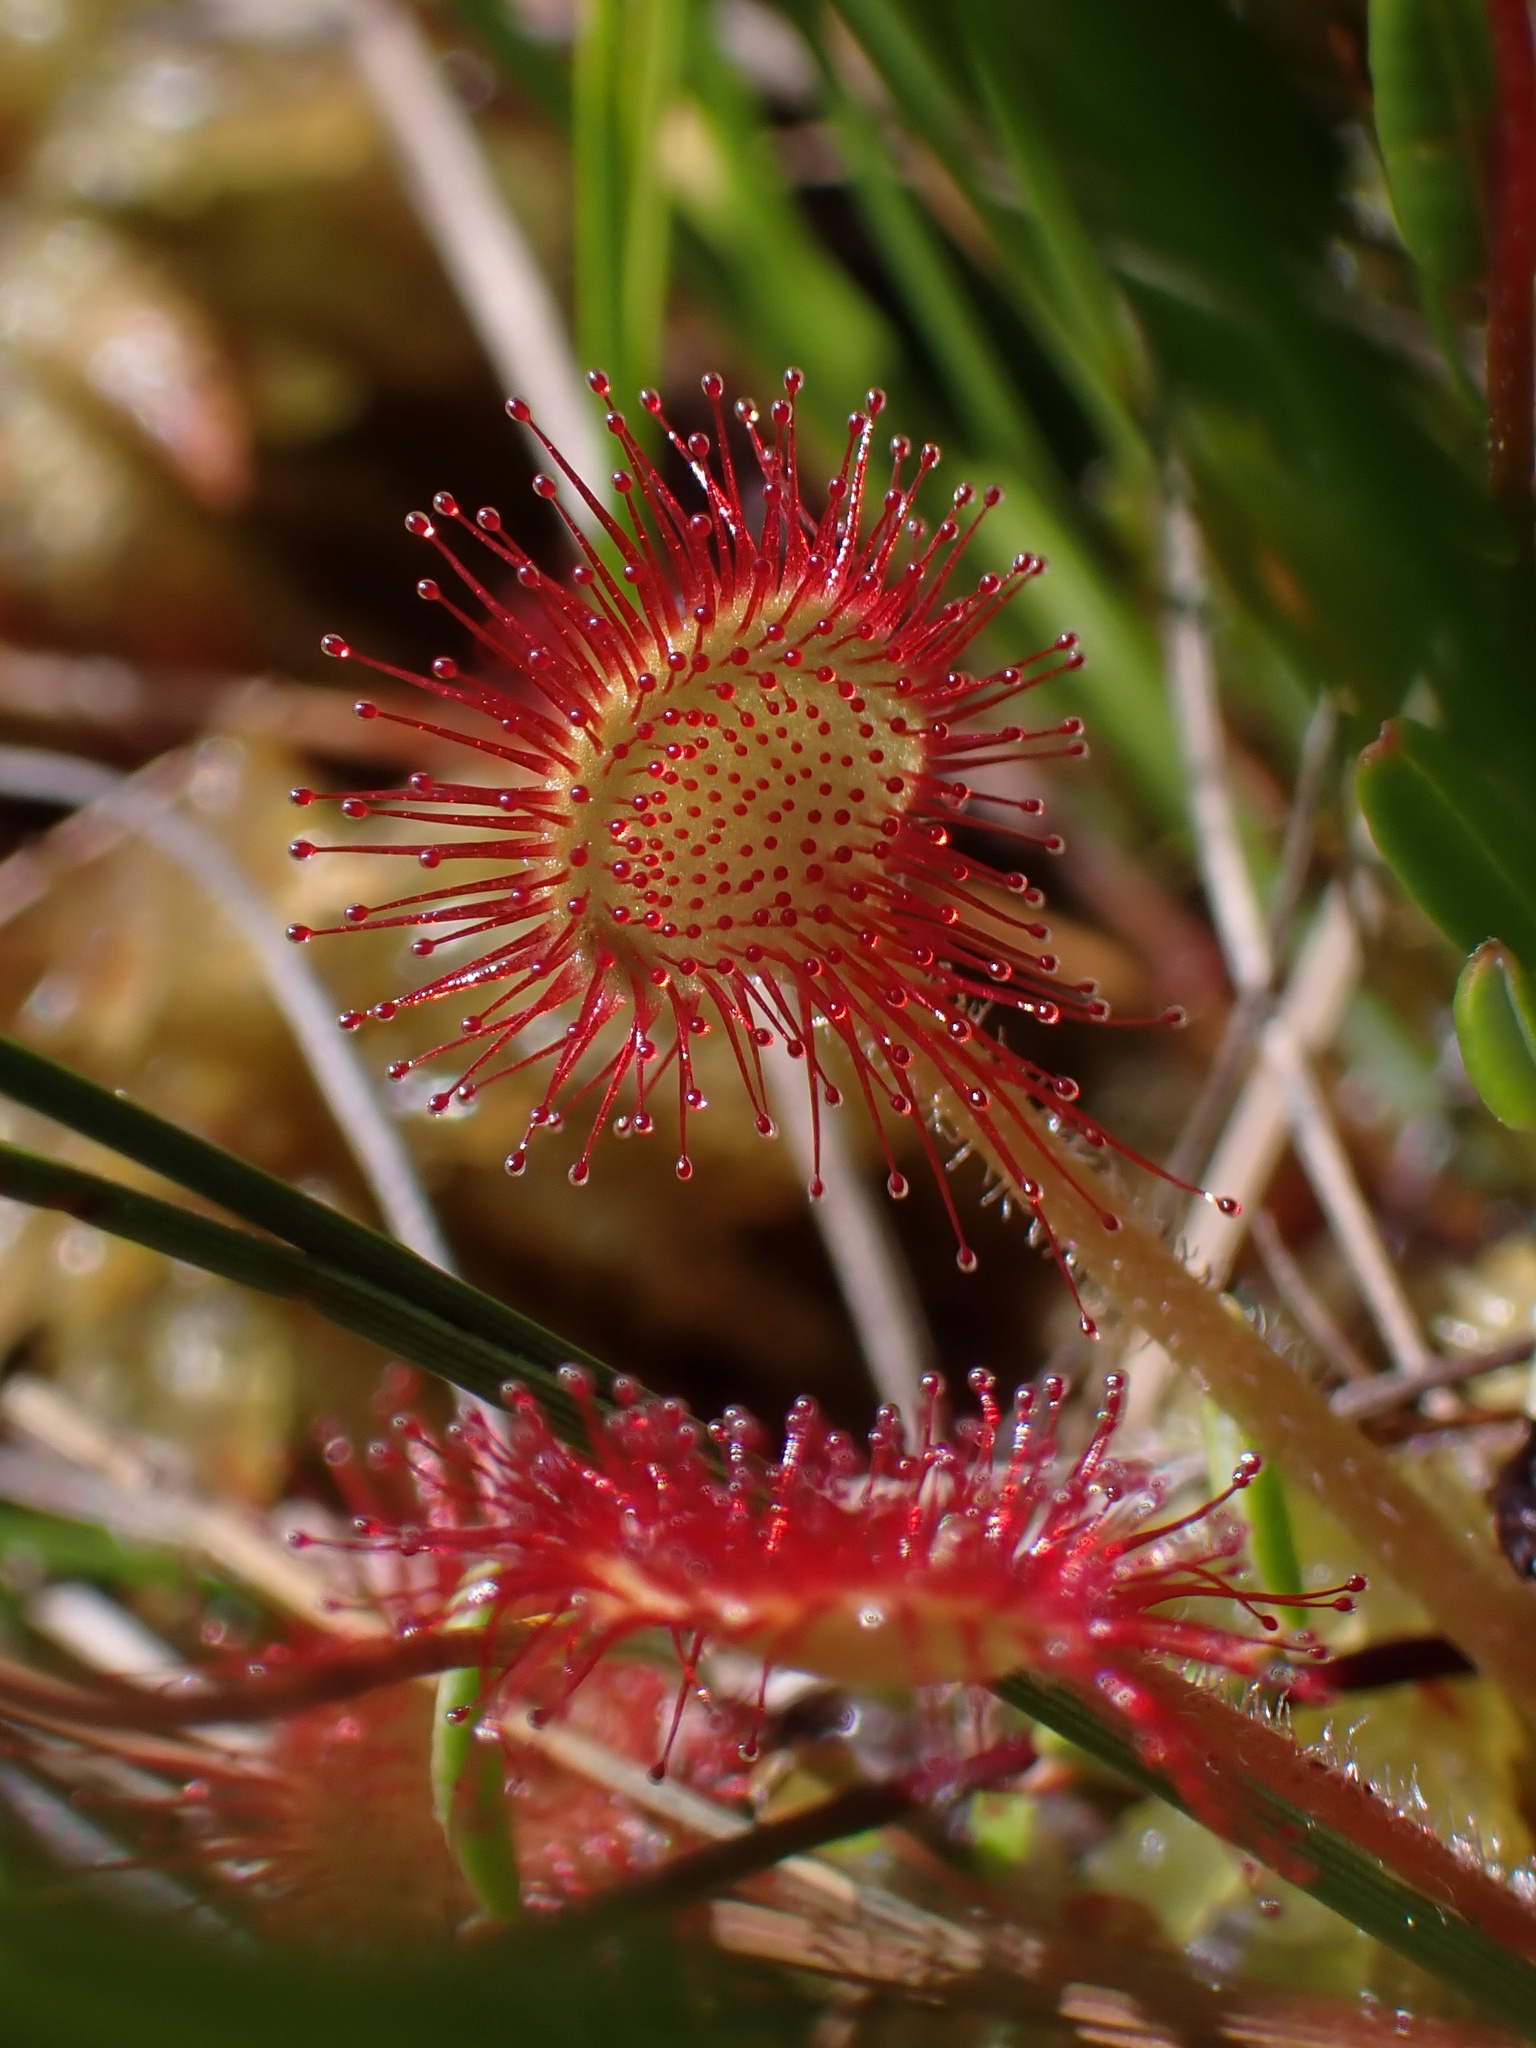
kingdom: Plantae
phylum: Tracheophyta
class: Magnoliopsida
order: Caryophyllales
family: Droseraceae
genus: Drosera
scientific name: Drosera rotundifolia
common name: Round-leaved sundew
